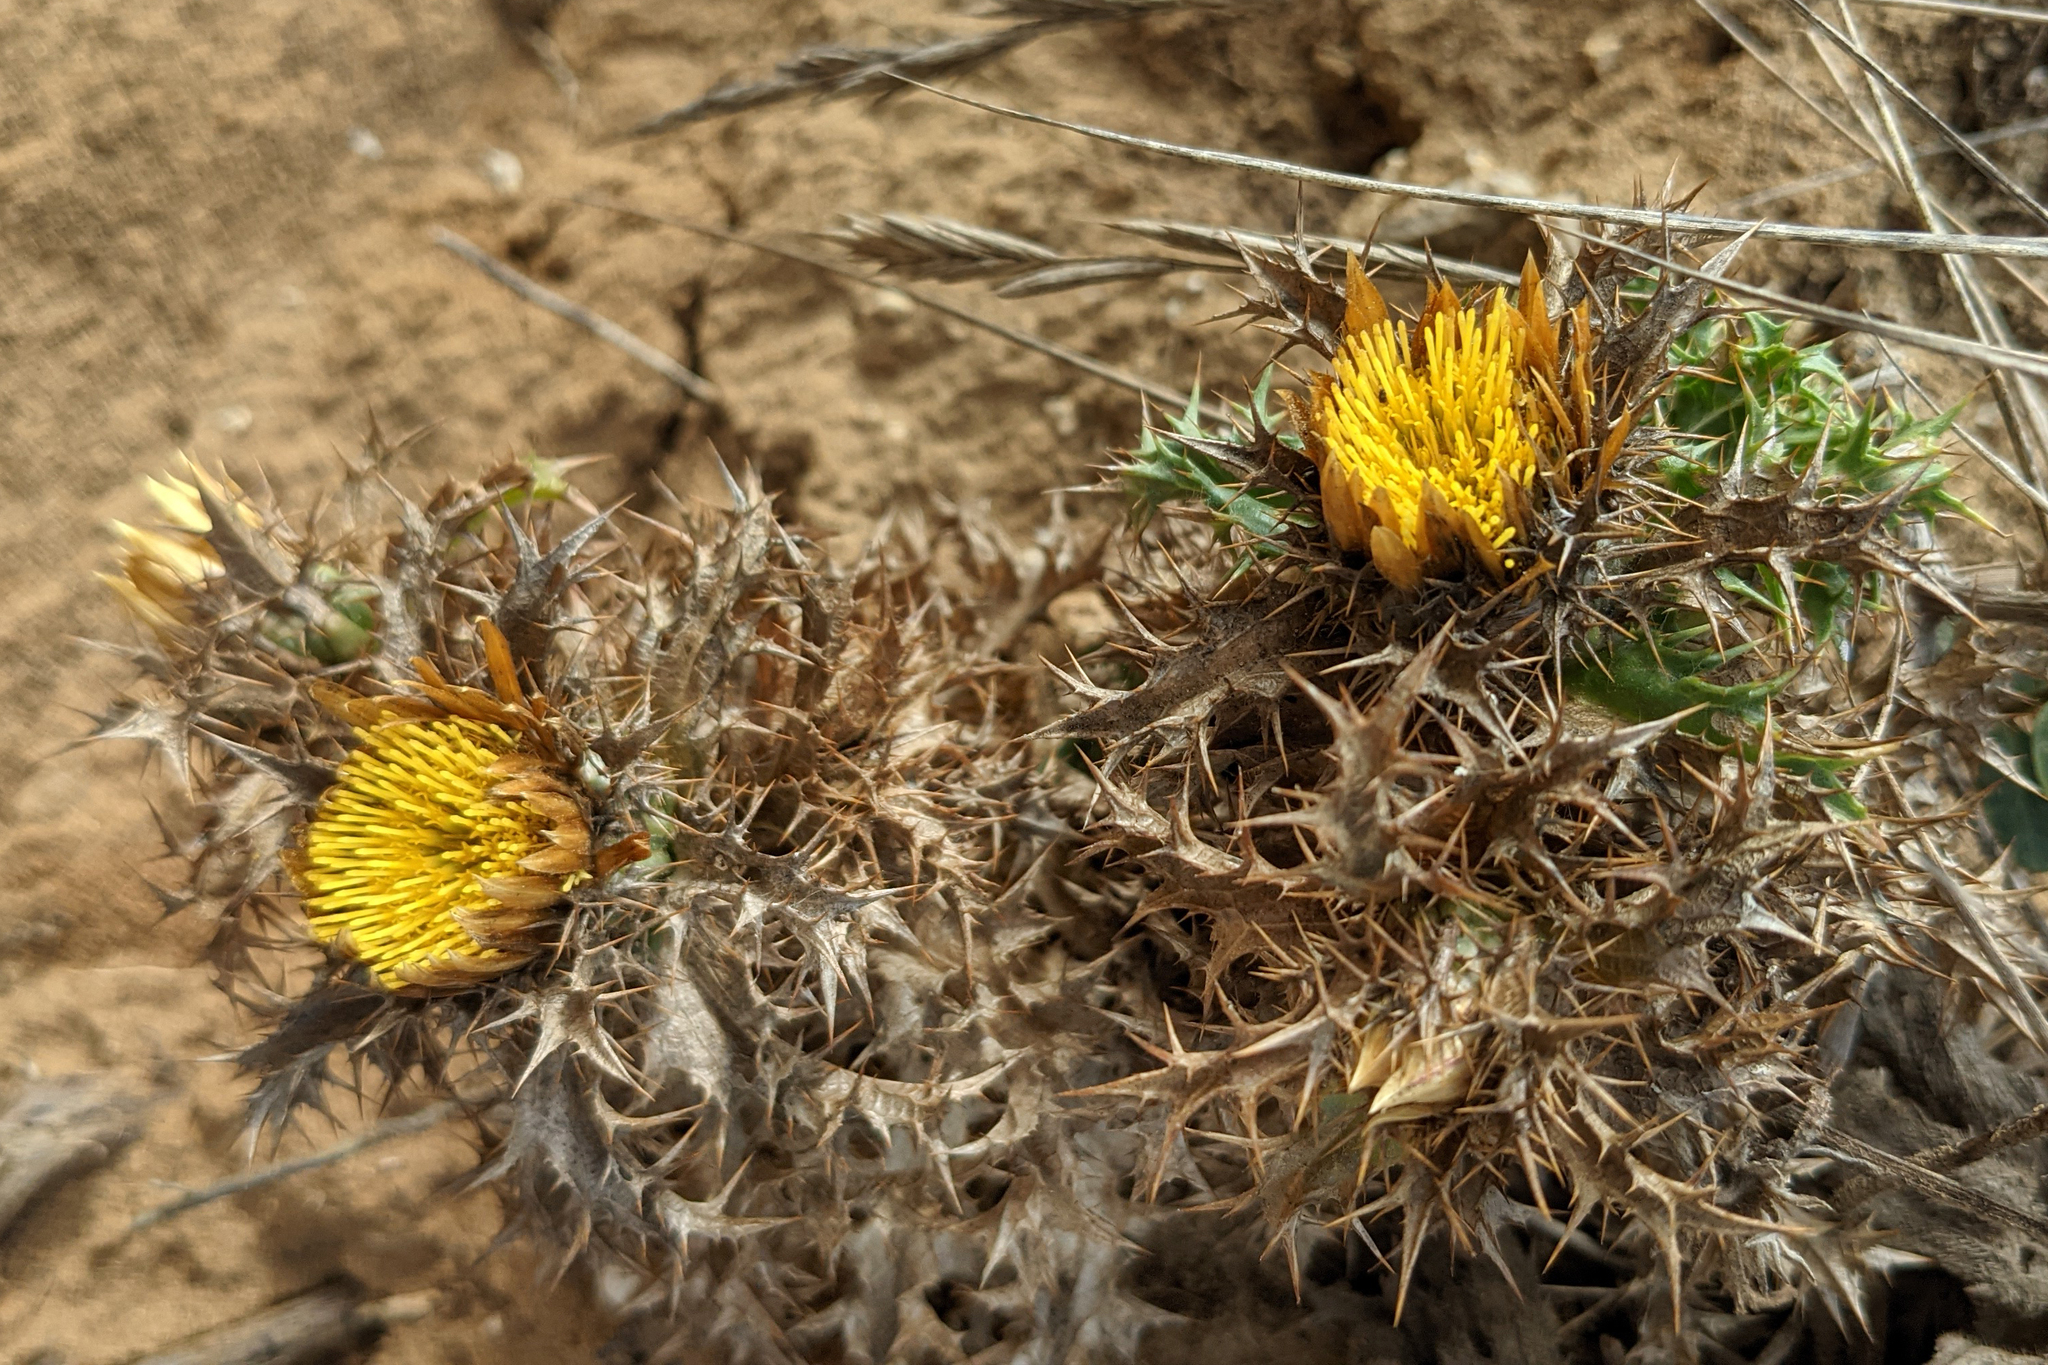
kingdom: Plantae
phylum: Tracheophyta
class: Magnoliopsida
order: Asterales
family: Asteraceae
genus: Carlina
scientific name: Carlina hispanica
